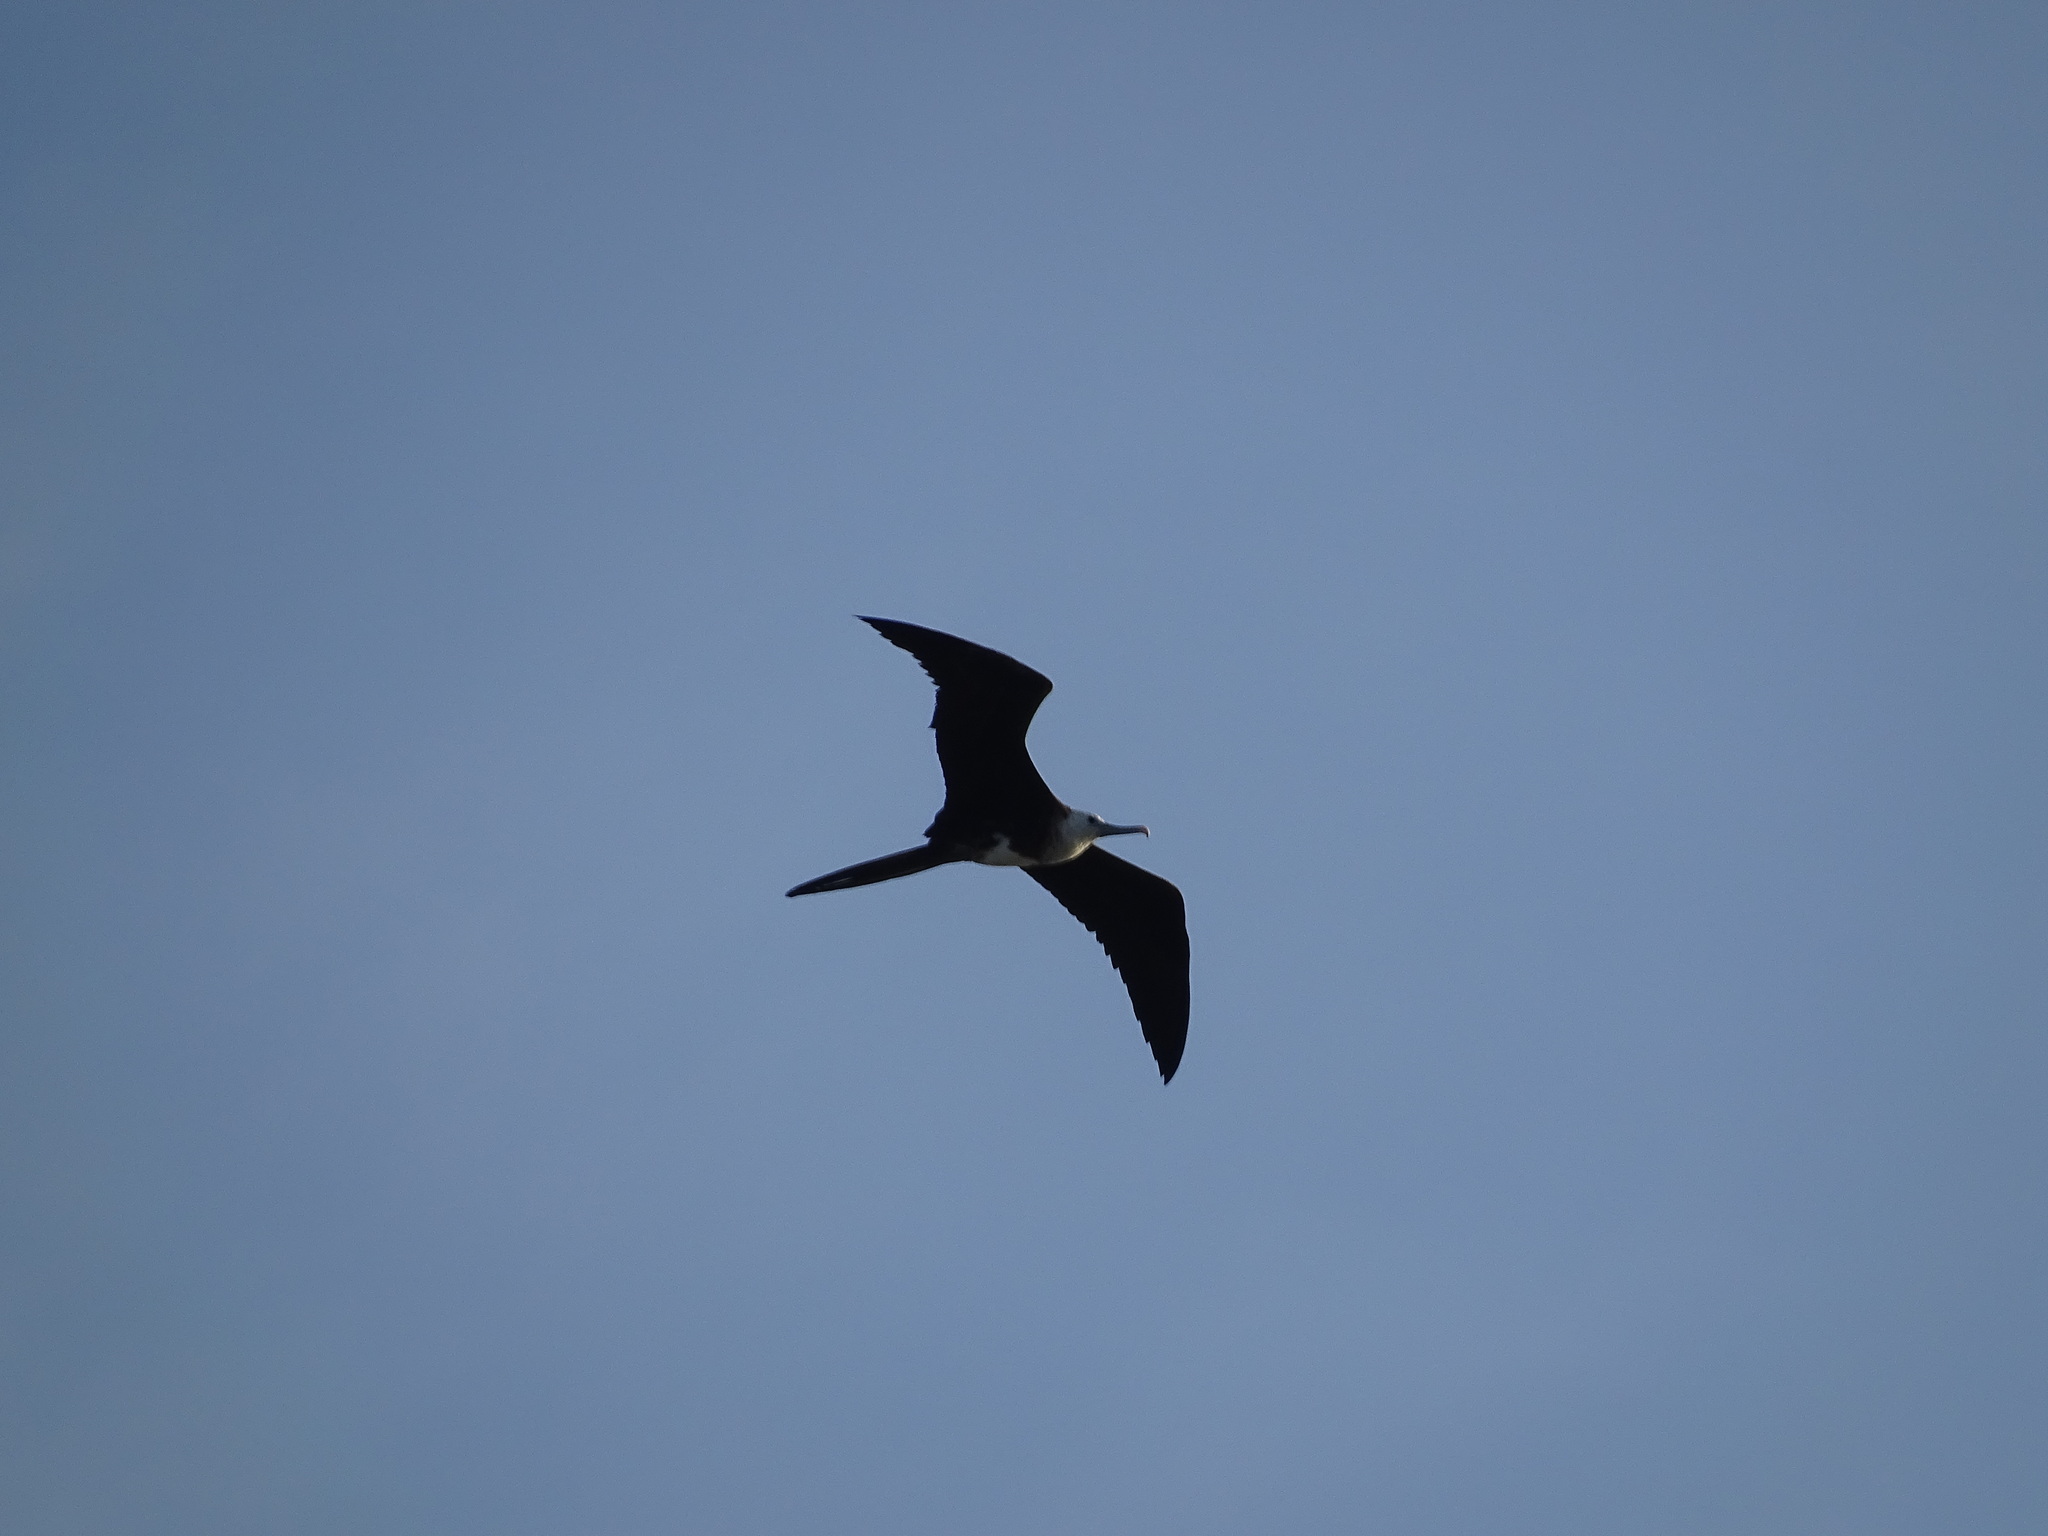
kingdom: Animalia
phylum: Chordata
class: Aves
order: Suliformes
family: Fregatidae
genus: Fregata
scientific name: Fregata magnificens
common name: Magnificent frigatebird
